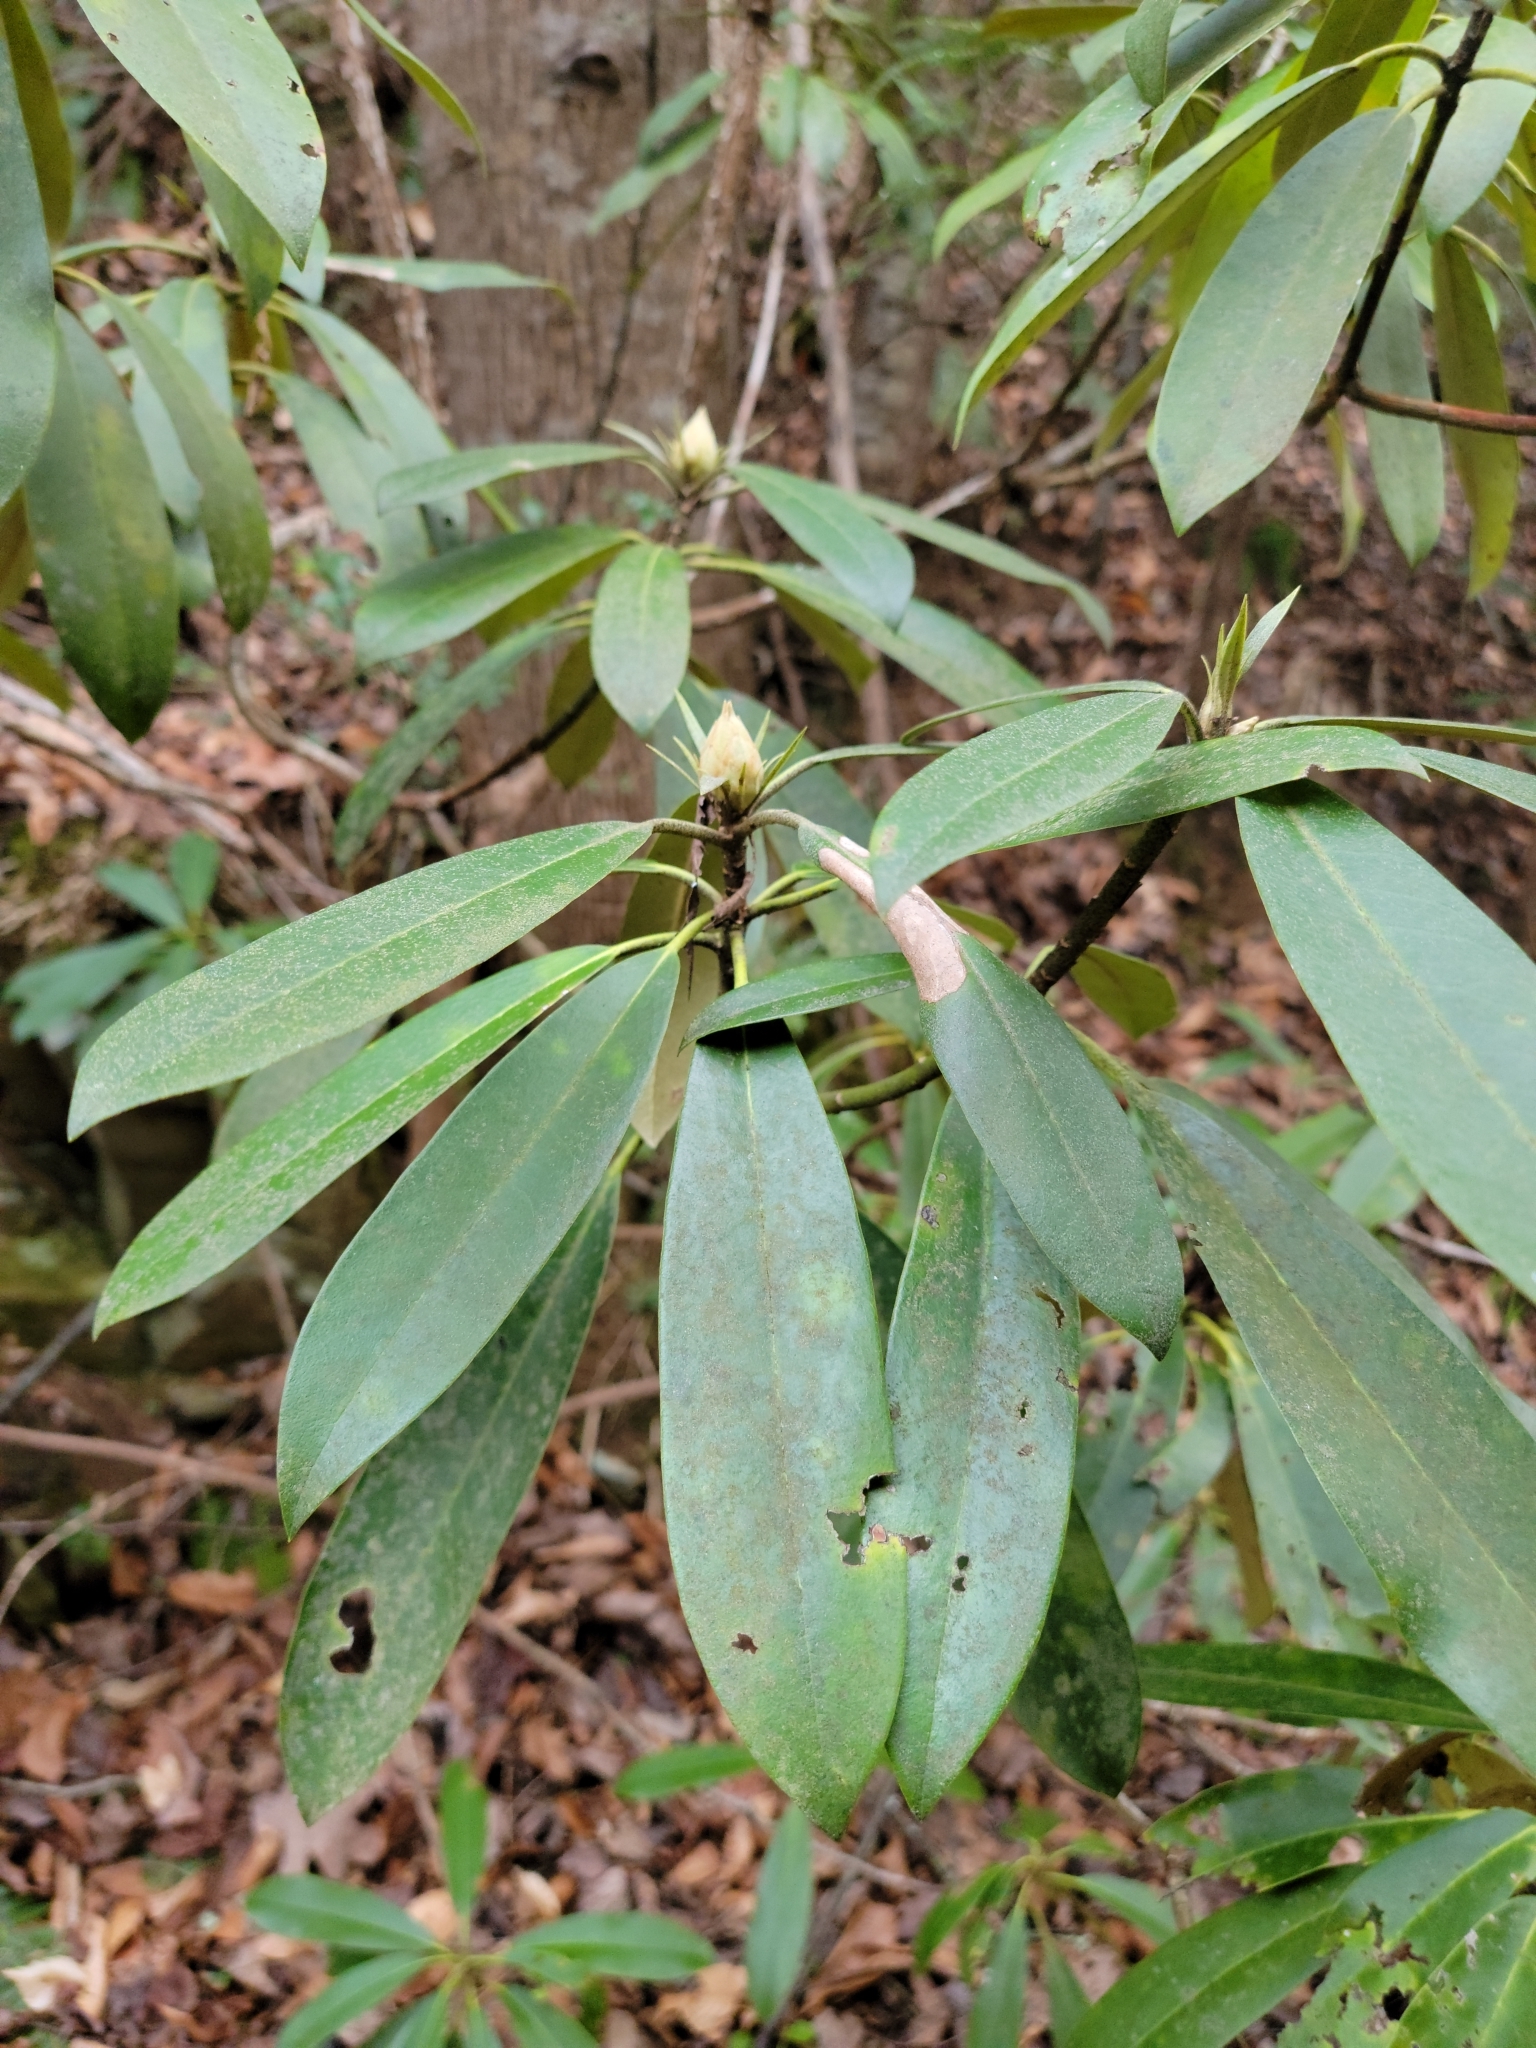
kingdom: Plantae
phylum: Tracheophyta
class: Magnoliopsida
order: Ericales
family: Ericaceae
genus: Rhododendron
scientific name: Rhododendron maximum
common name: Great rhododendron
